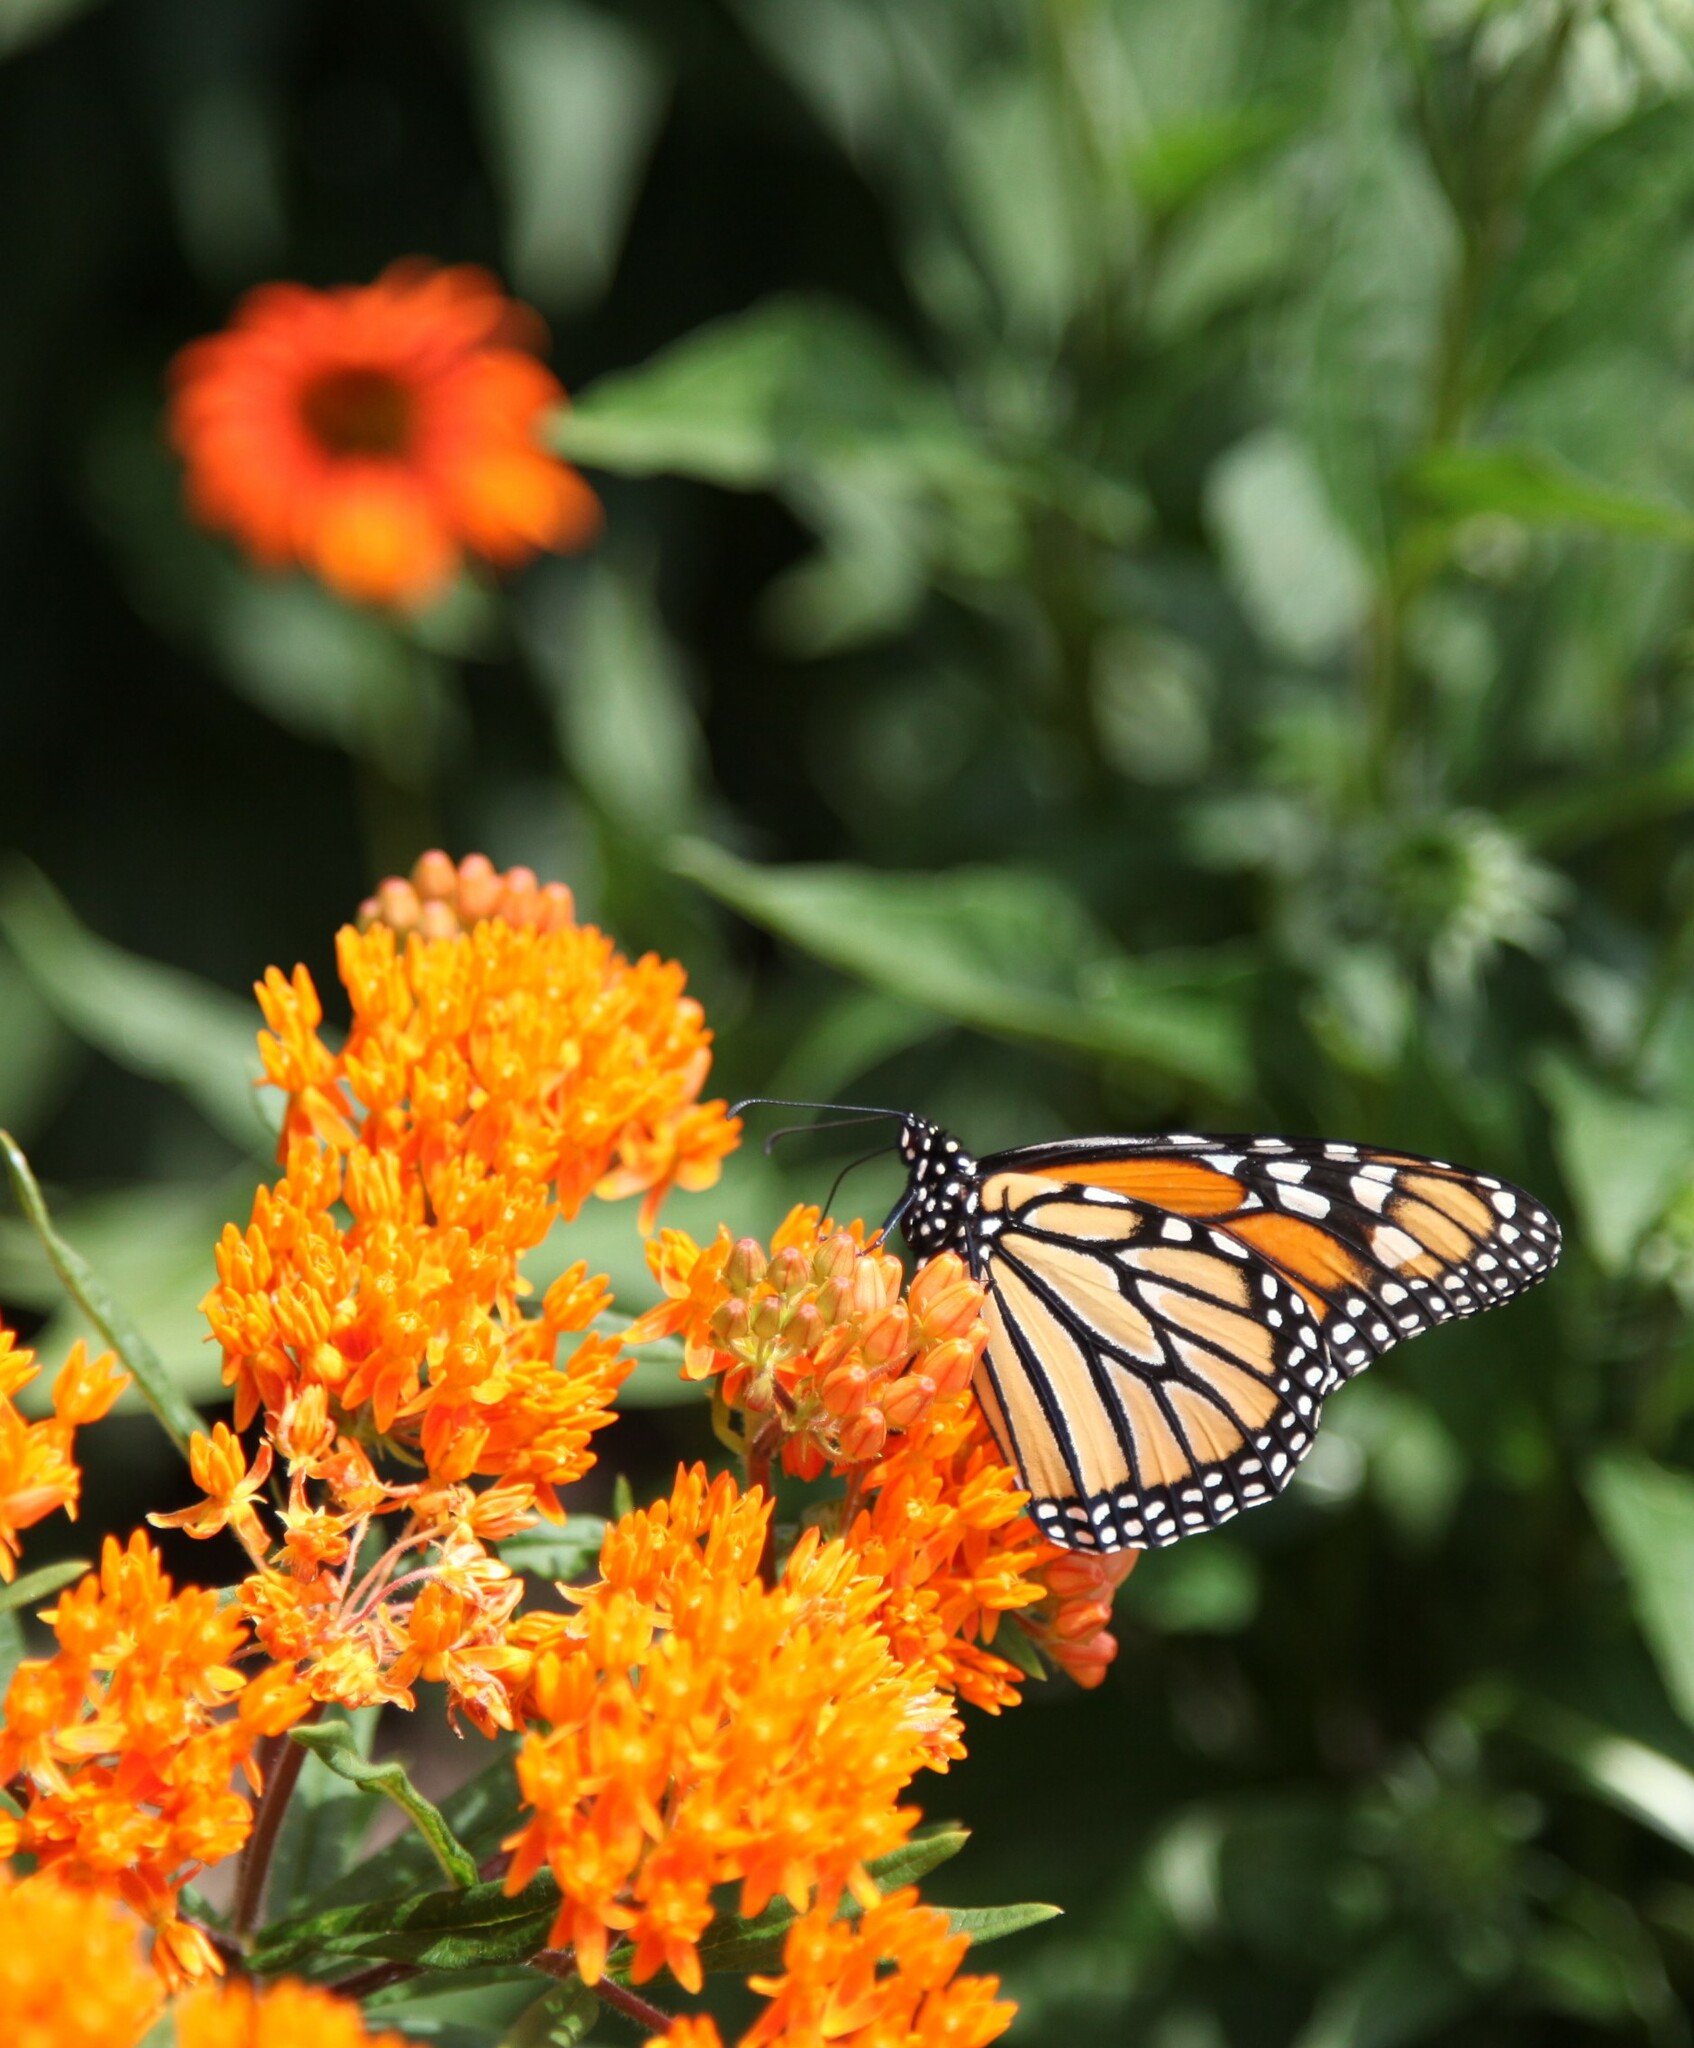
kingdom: Animalia
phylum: Arthropoda
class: Insecta
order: Lepidoptera
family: Nymphalidae
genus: Danaus
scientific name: Danaus plexippus
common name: Monarch
